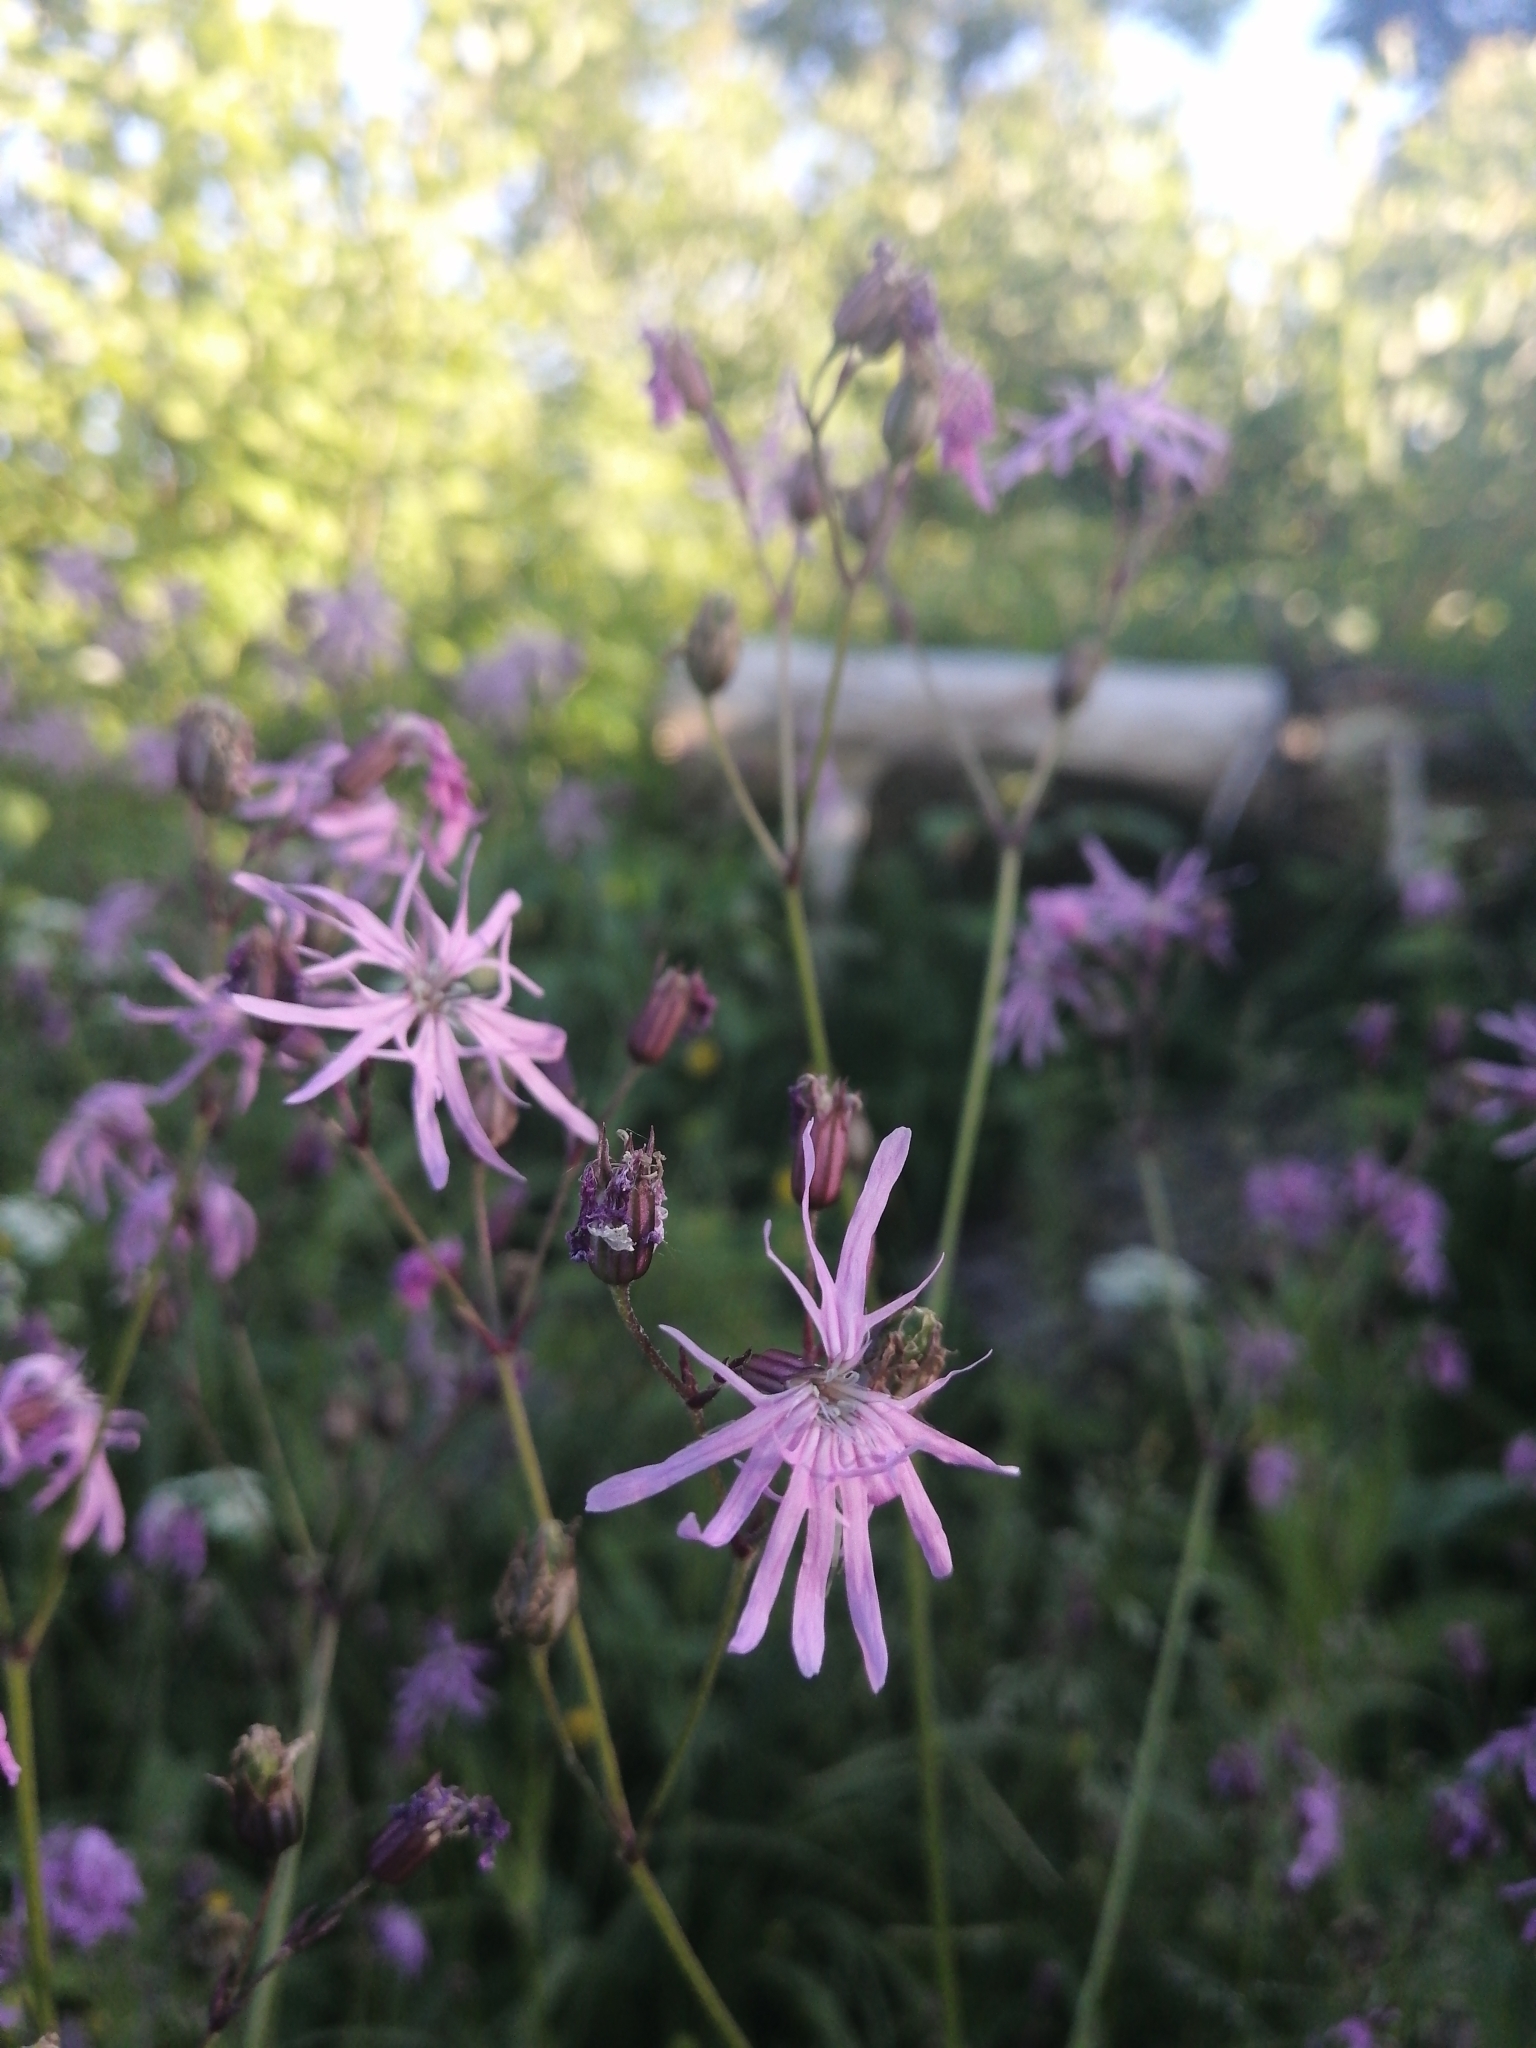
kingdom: Plantae
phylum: Tracheophyta
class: Magnoliopsida
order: Caryophyllales
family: Caryophyllaceae
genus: Silene
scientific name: Silene flos-cuculi
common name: Ragged-robin
